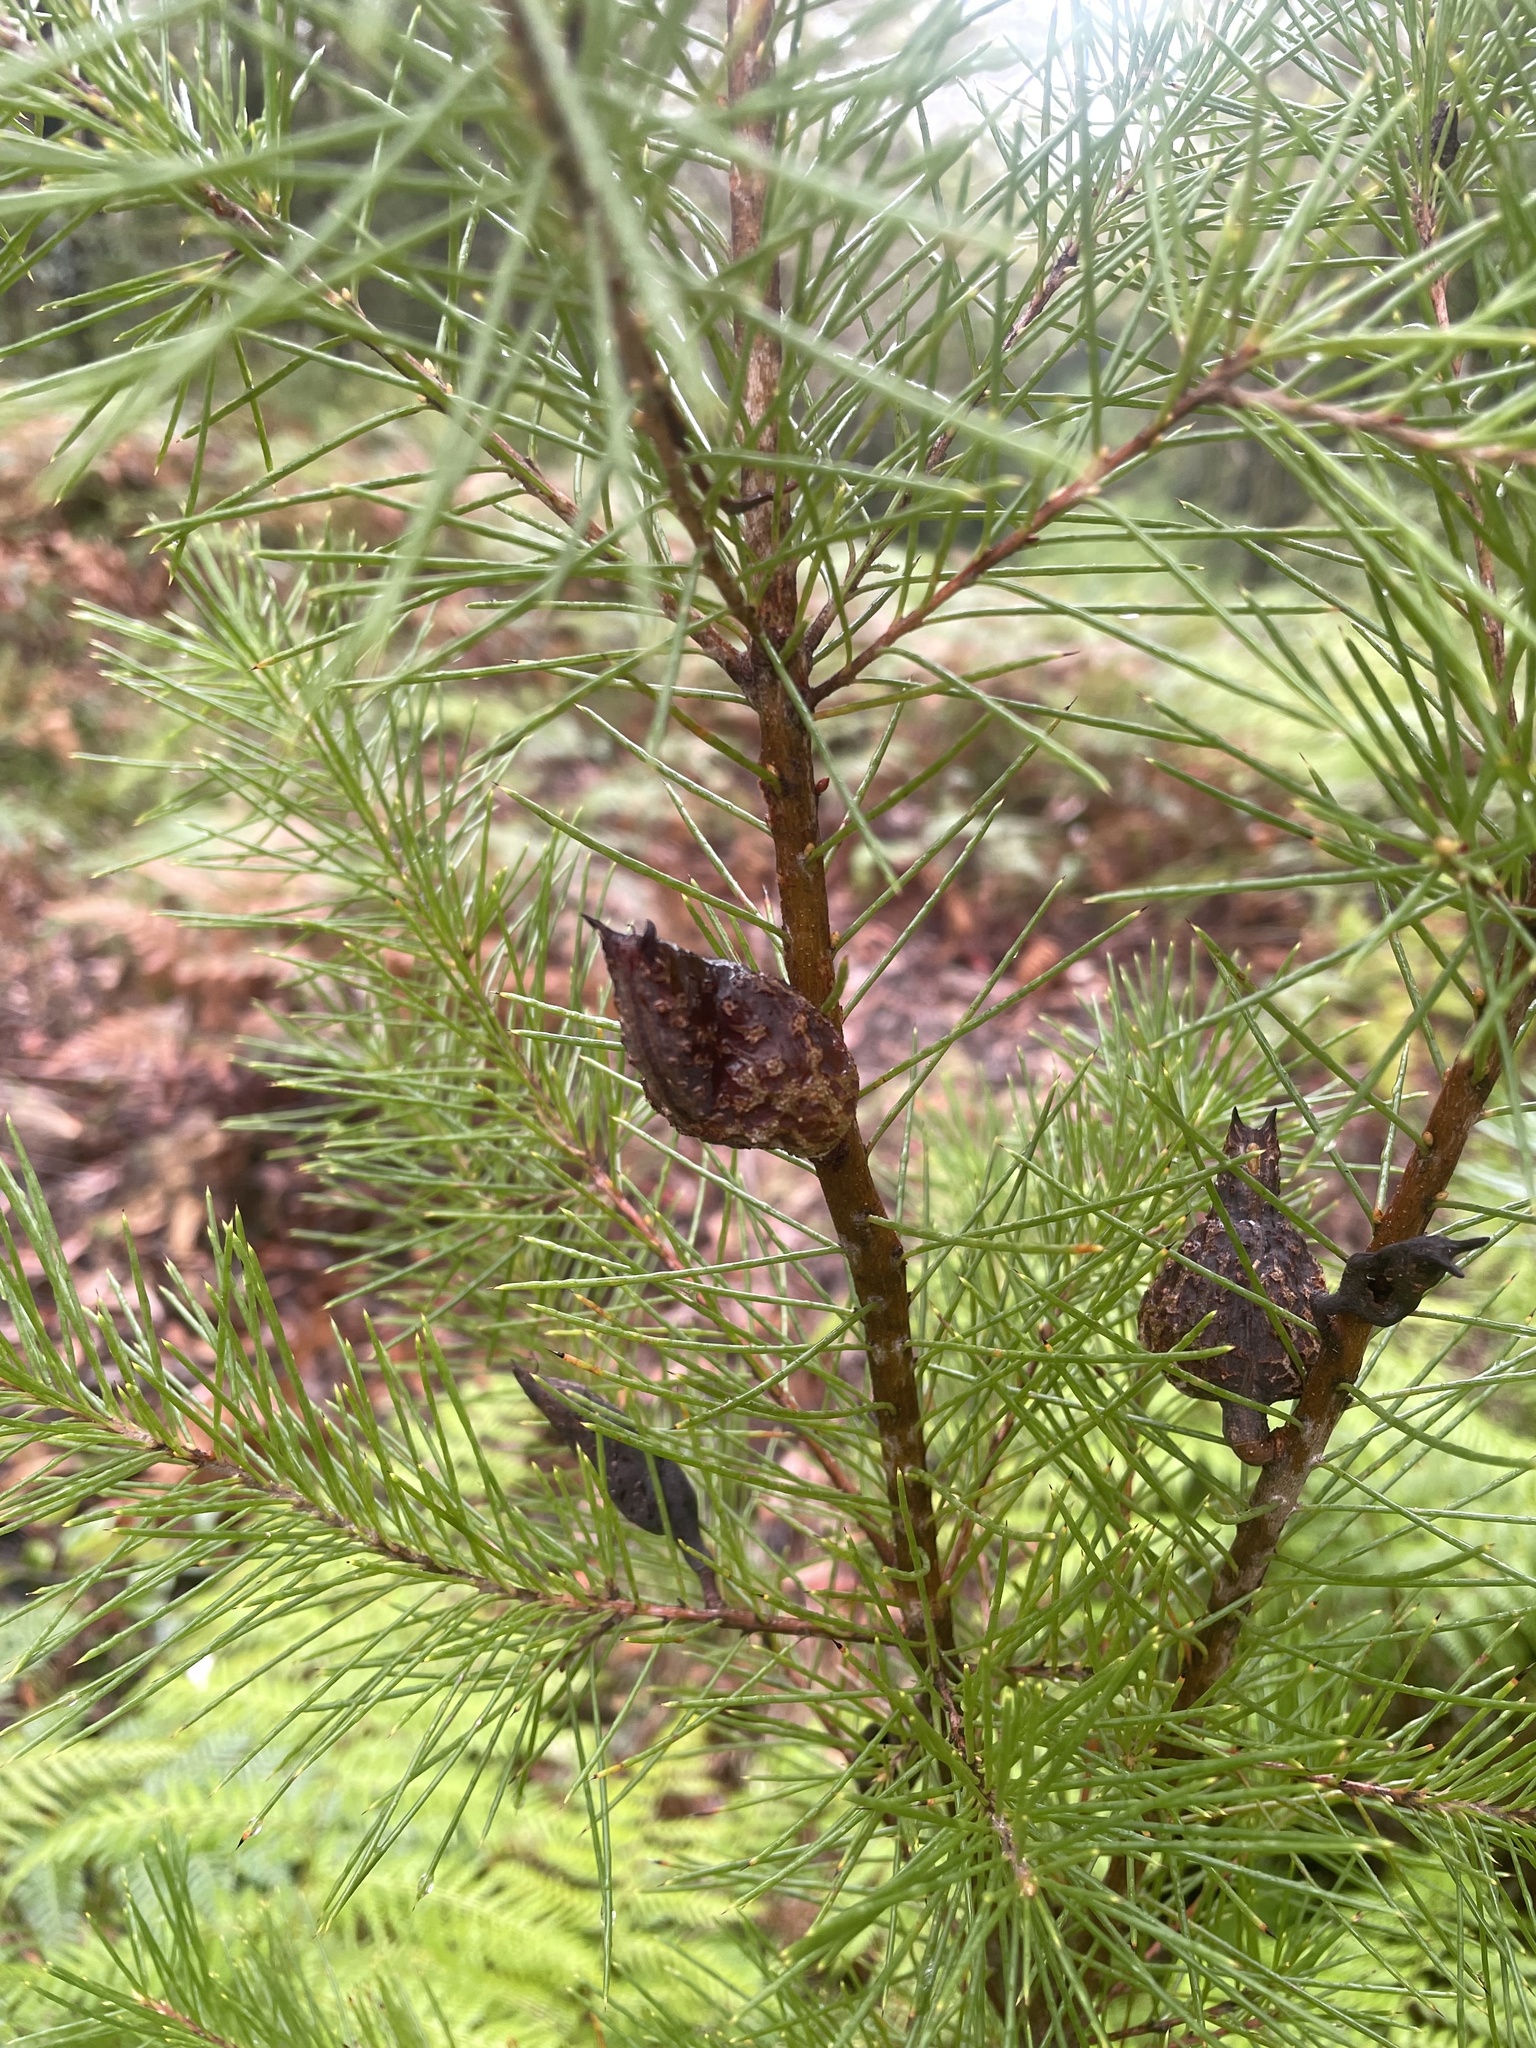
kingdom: Plantae
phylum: Tracheophyta
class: Magnoliopsida
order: Proteales
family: Proteaceae
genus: Hakea
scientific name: Hakea sericea
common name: Needle bush
